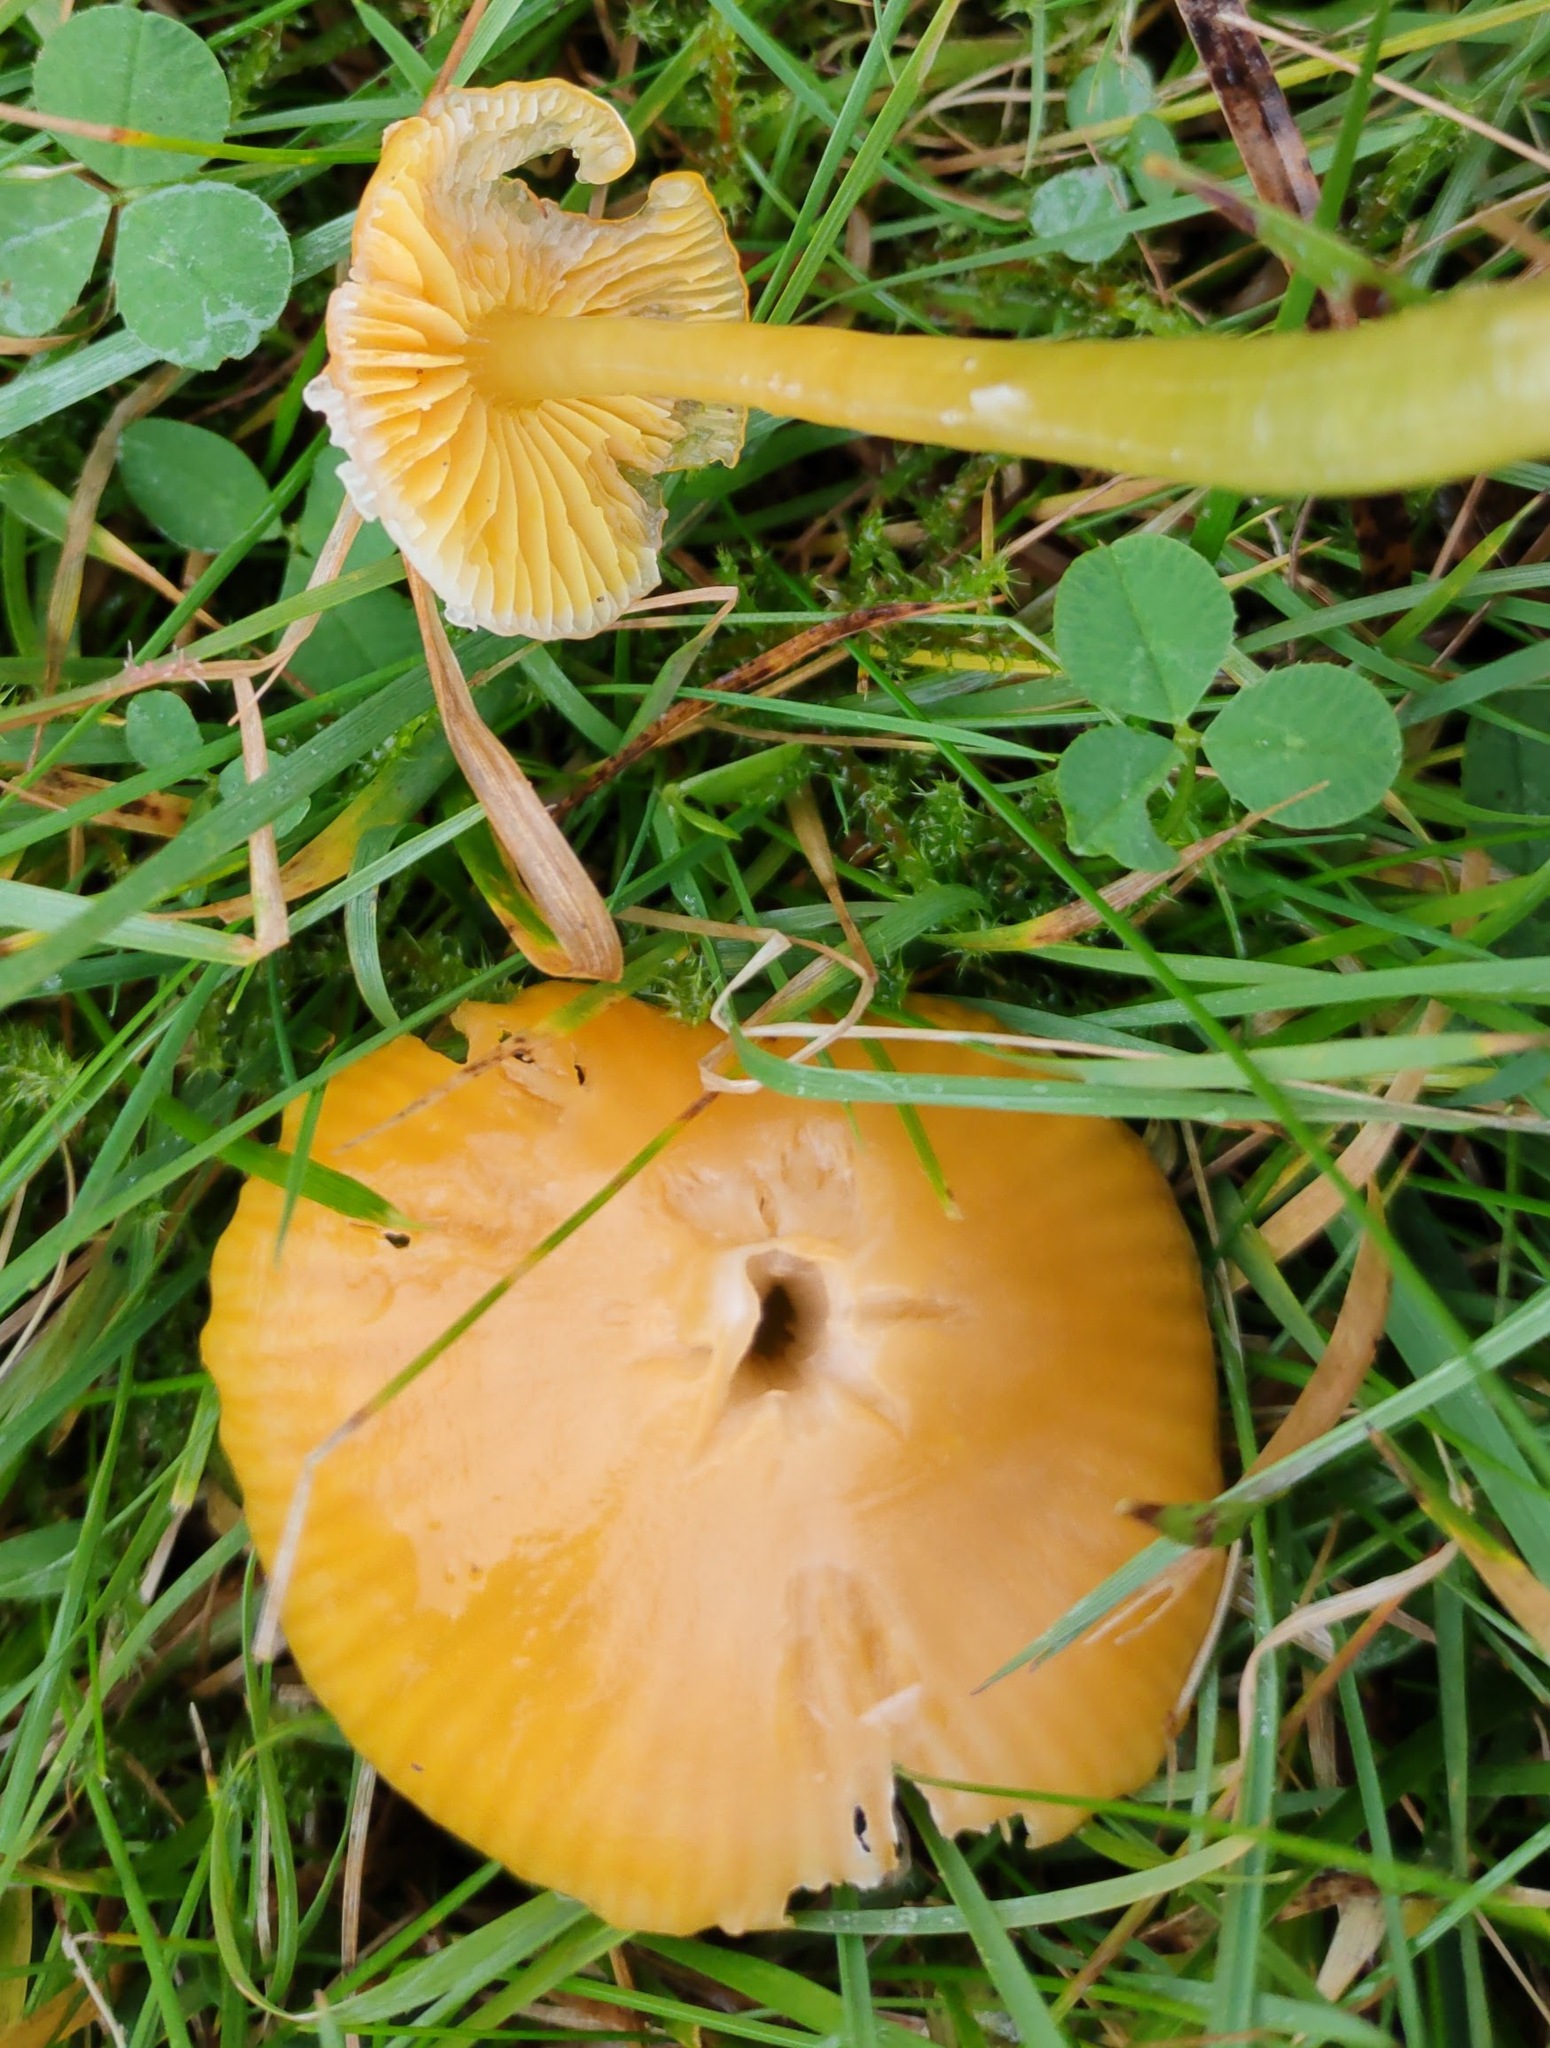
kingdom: Fungi
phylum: Basidiomycota
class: Agaricomycetes
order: Agaricales
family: Hygrophoraceae
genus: Gliophorus
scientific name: Gliophorus psittacinus
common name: Parrot wax-cap
